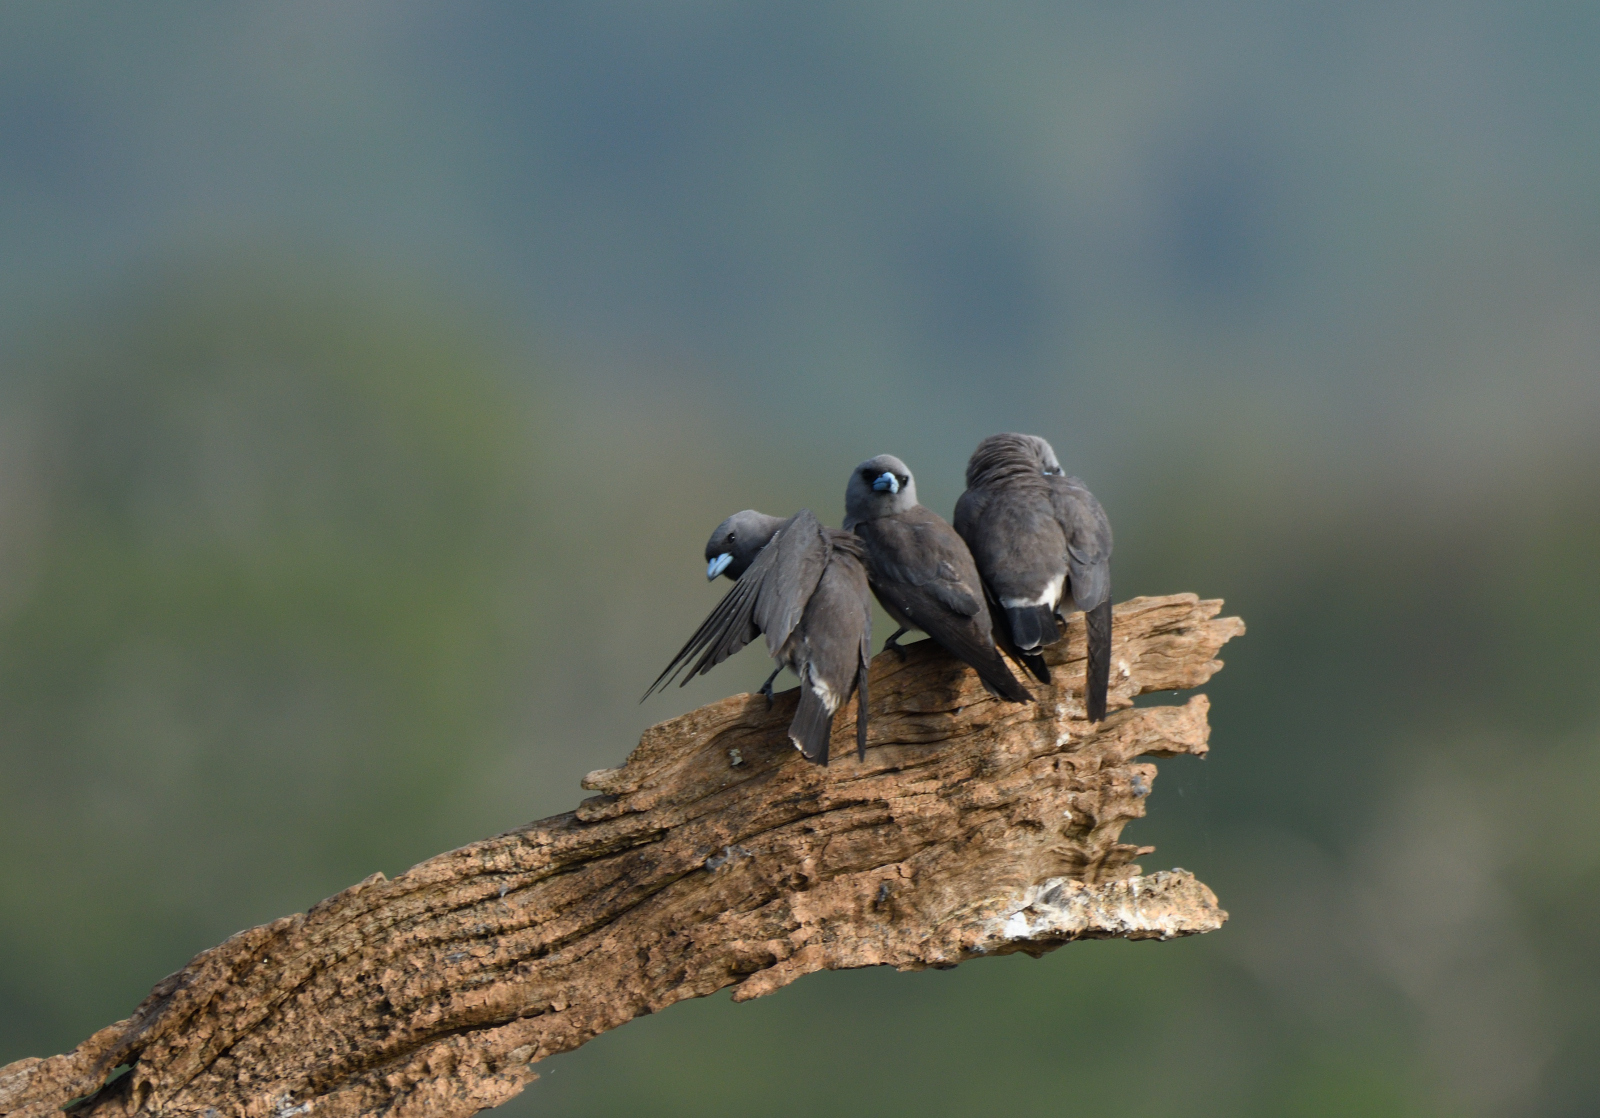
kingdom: Animalia
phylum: Chordata
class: Aves
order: Passeriformes
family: Artamidae
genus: Artamus
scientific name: Artamus fuscus
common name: Ashy woodswallow
